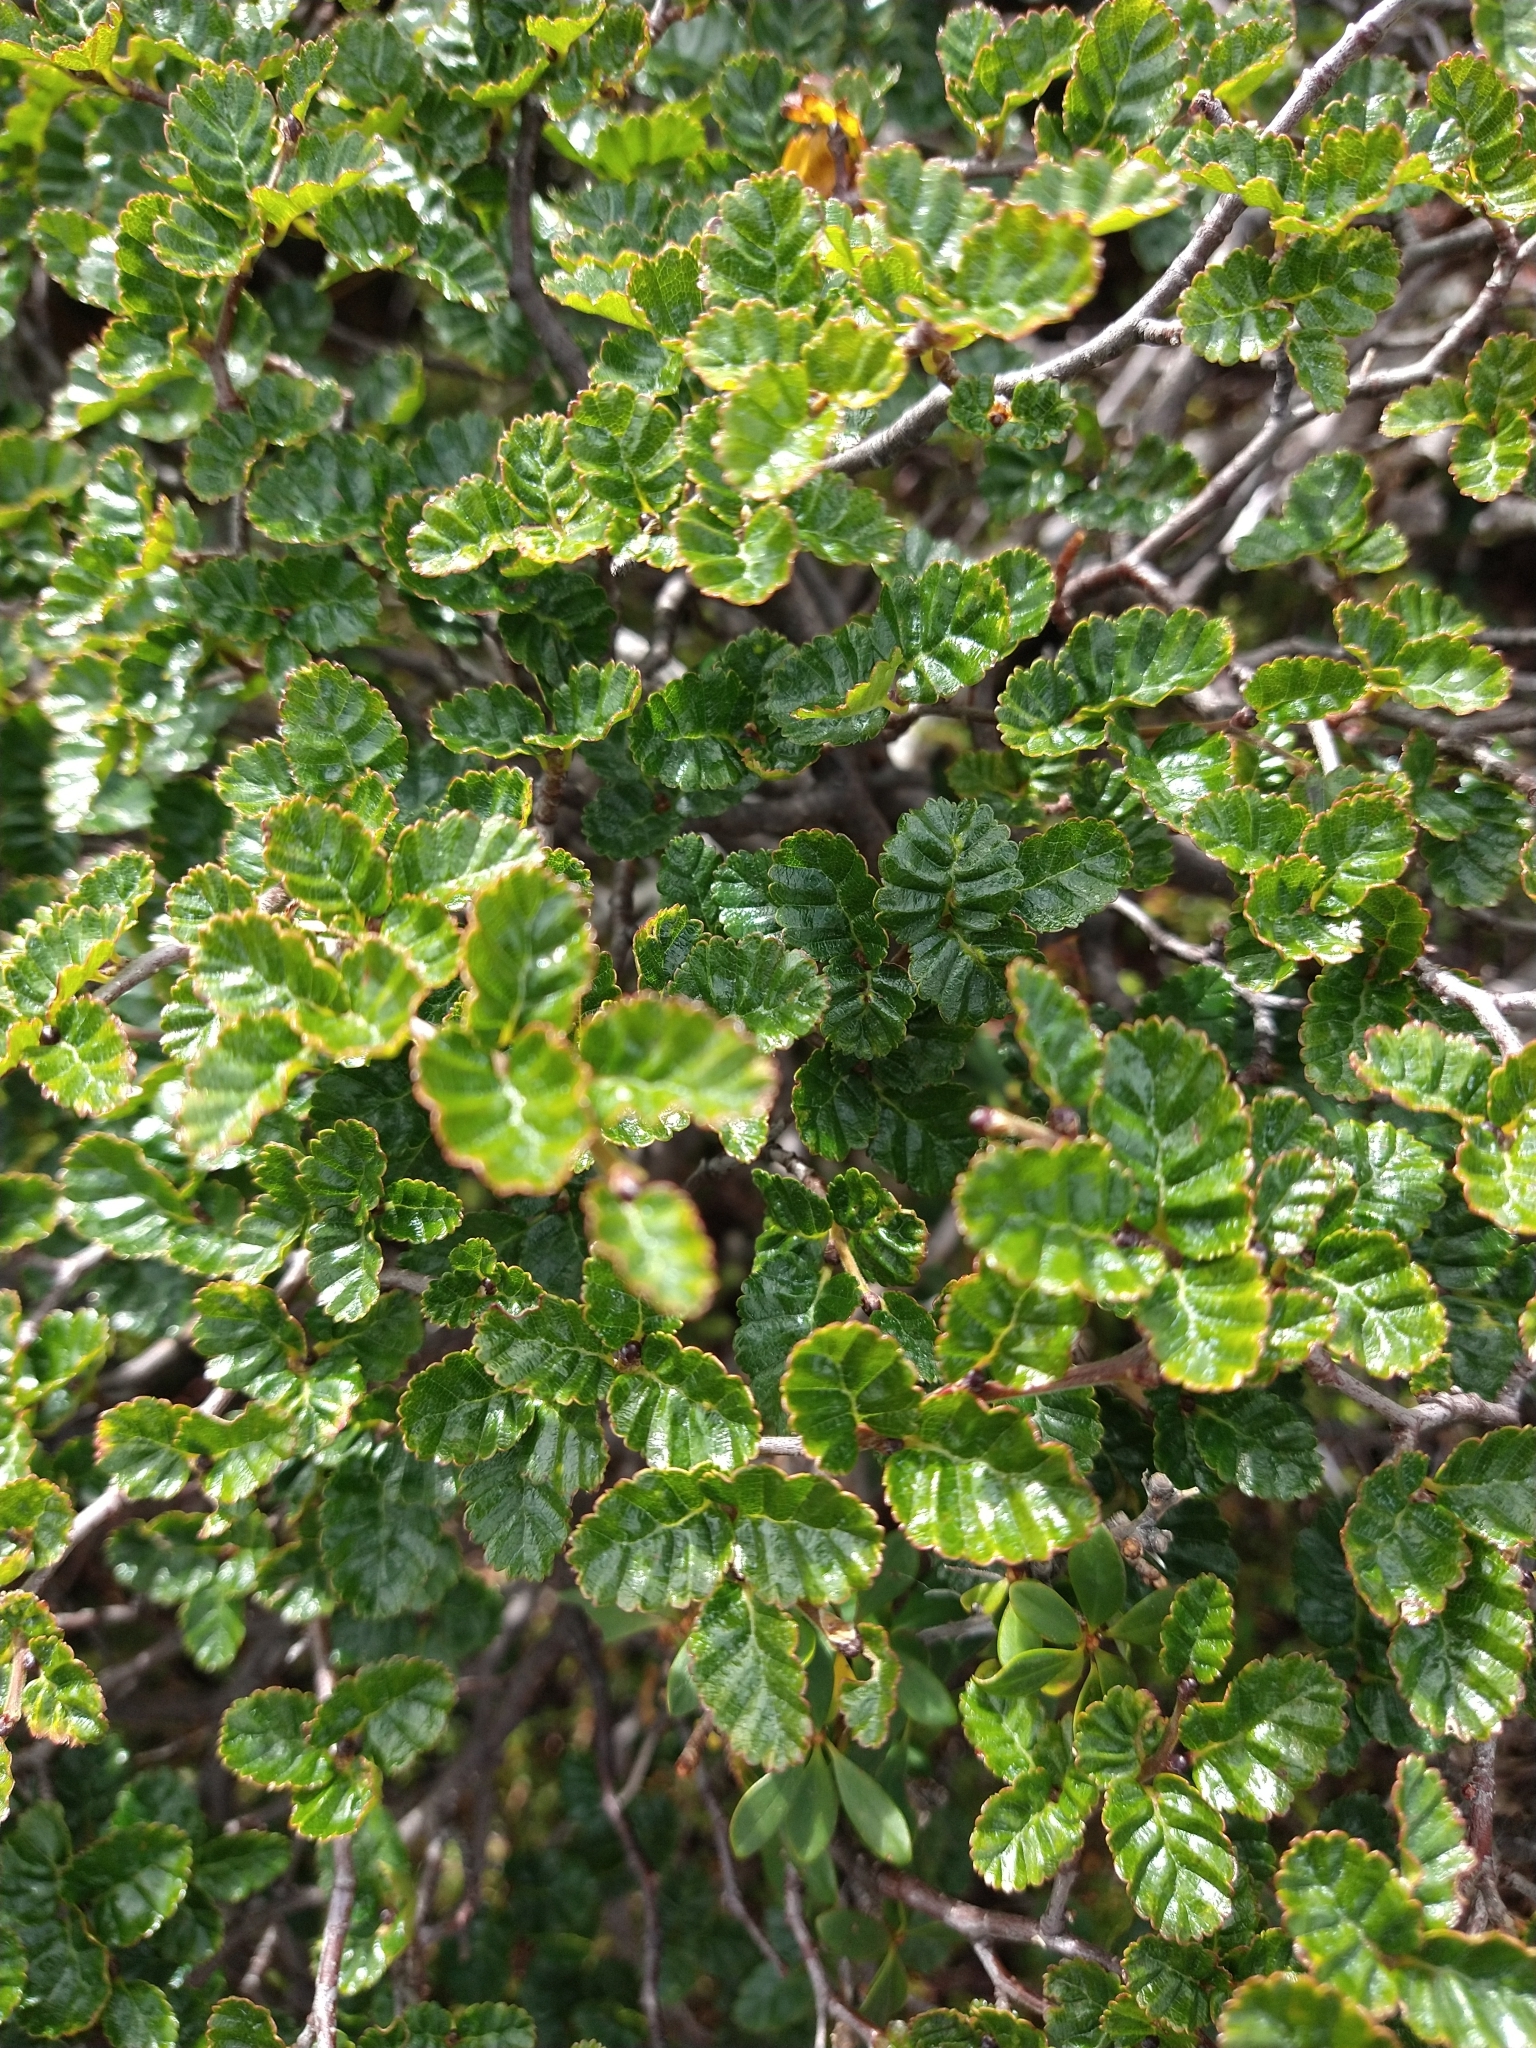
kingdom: Plantae
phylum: Tracheophyta
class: Magnoliopsida
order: Fagales
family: Nothofagaceae
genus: Nothofagus
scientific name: Nothofagus antarctica
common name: Antarctic beech
